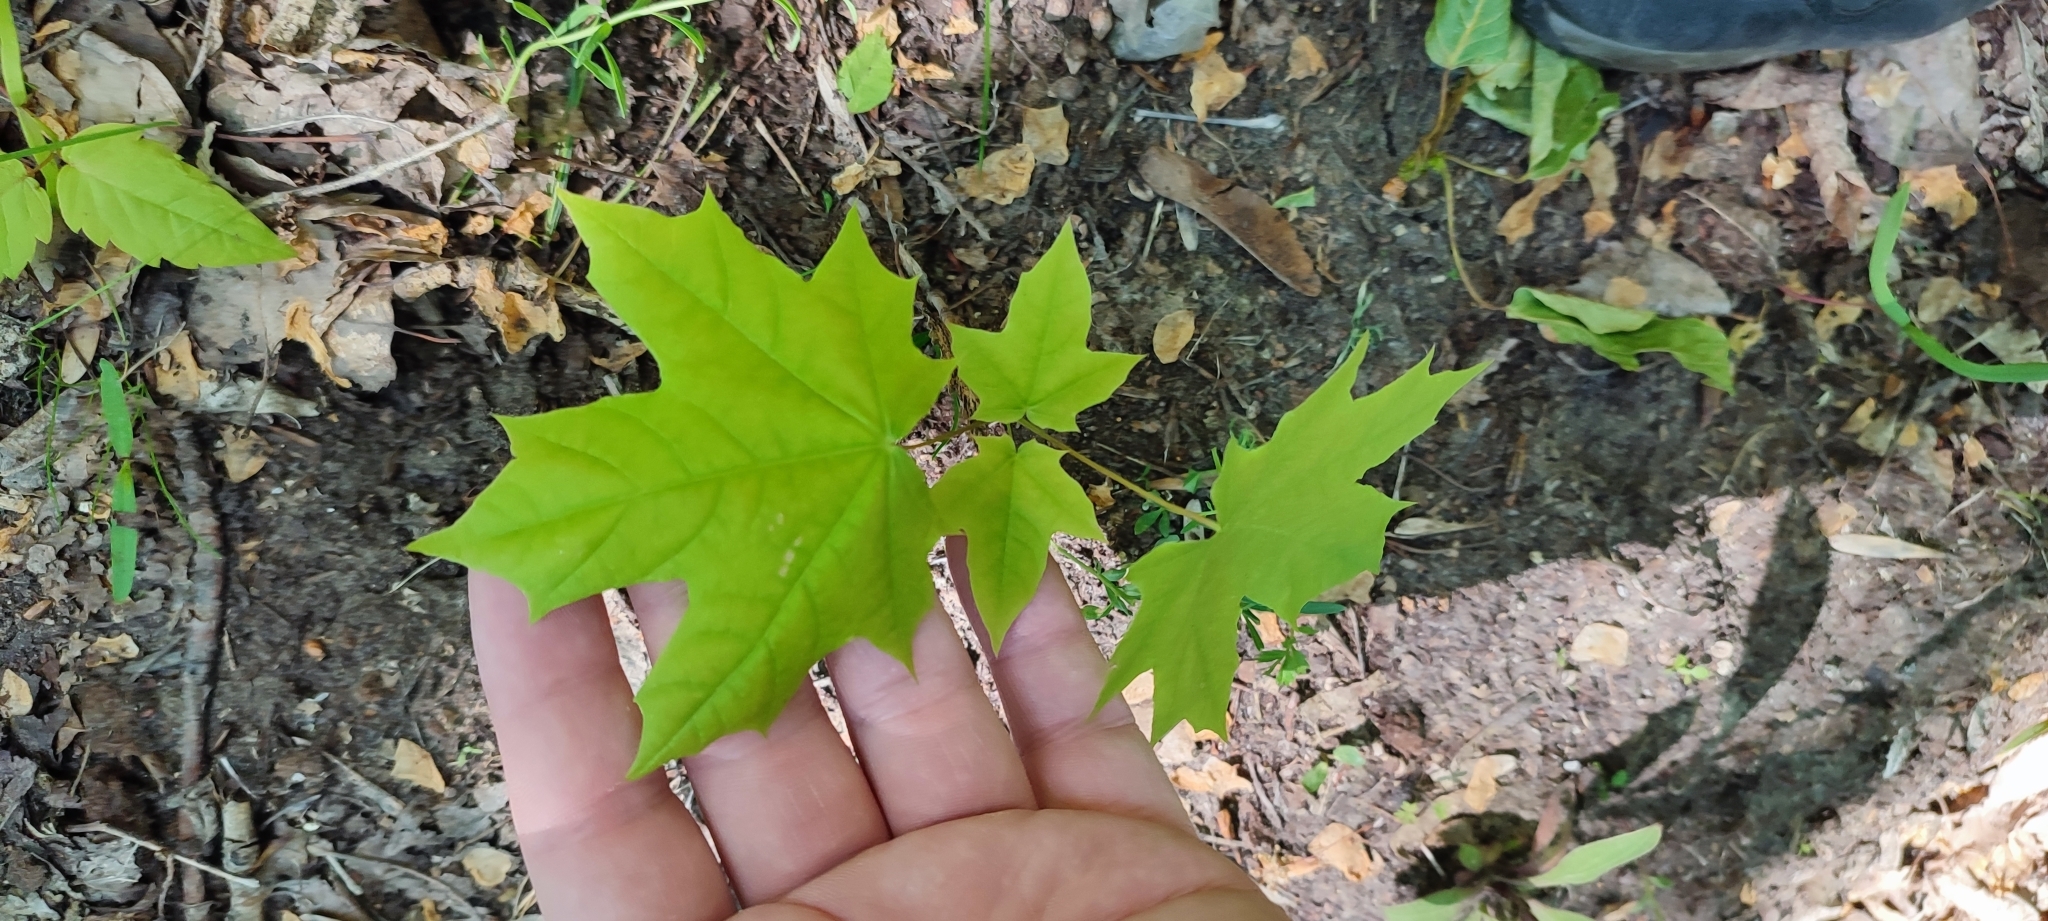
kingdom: Plantae
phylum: Tracheophyta
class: Magnoliopsida
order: Sapindales
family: Sapindaceae
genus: Acer
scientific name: Acer platanoides
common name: Norway maple
